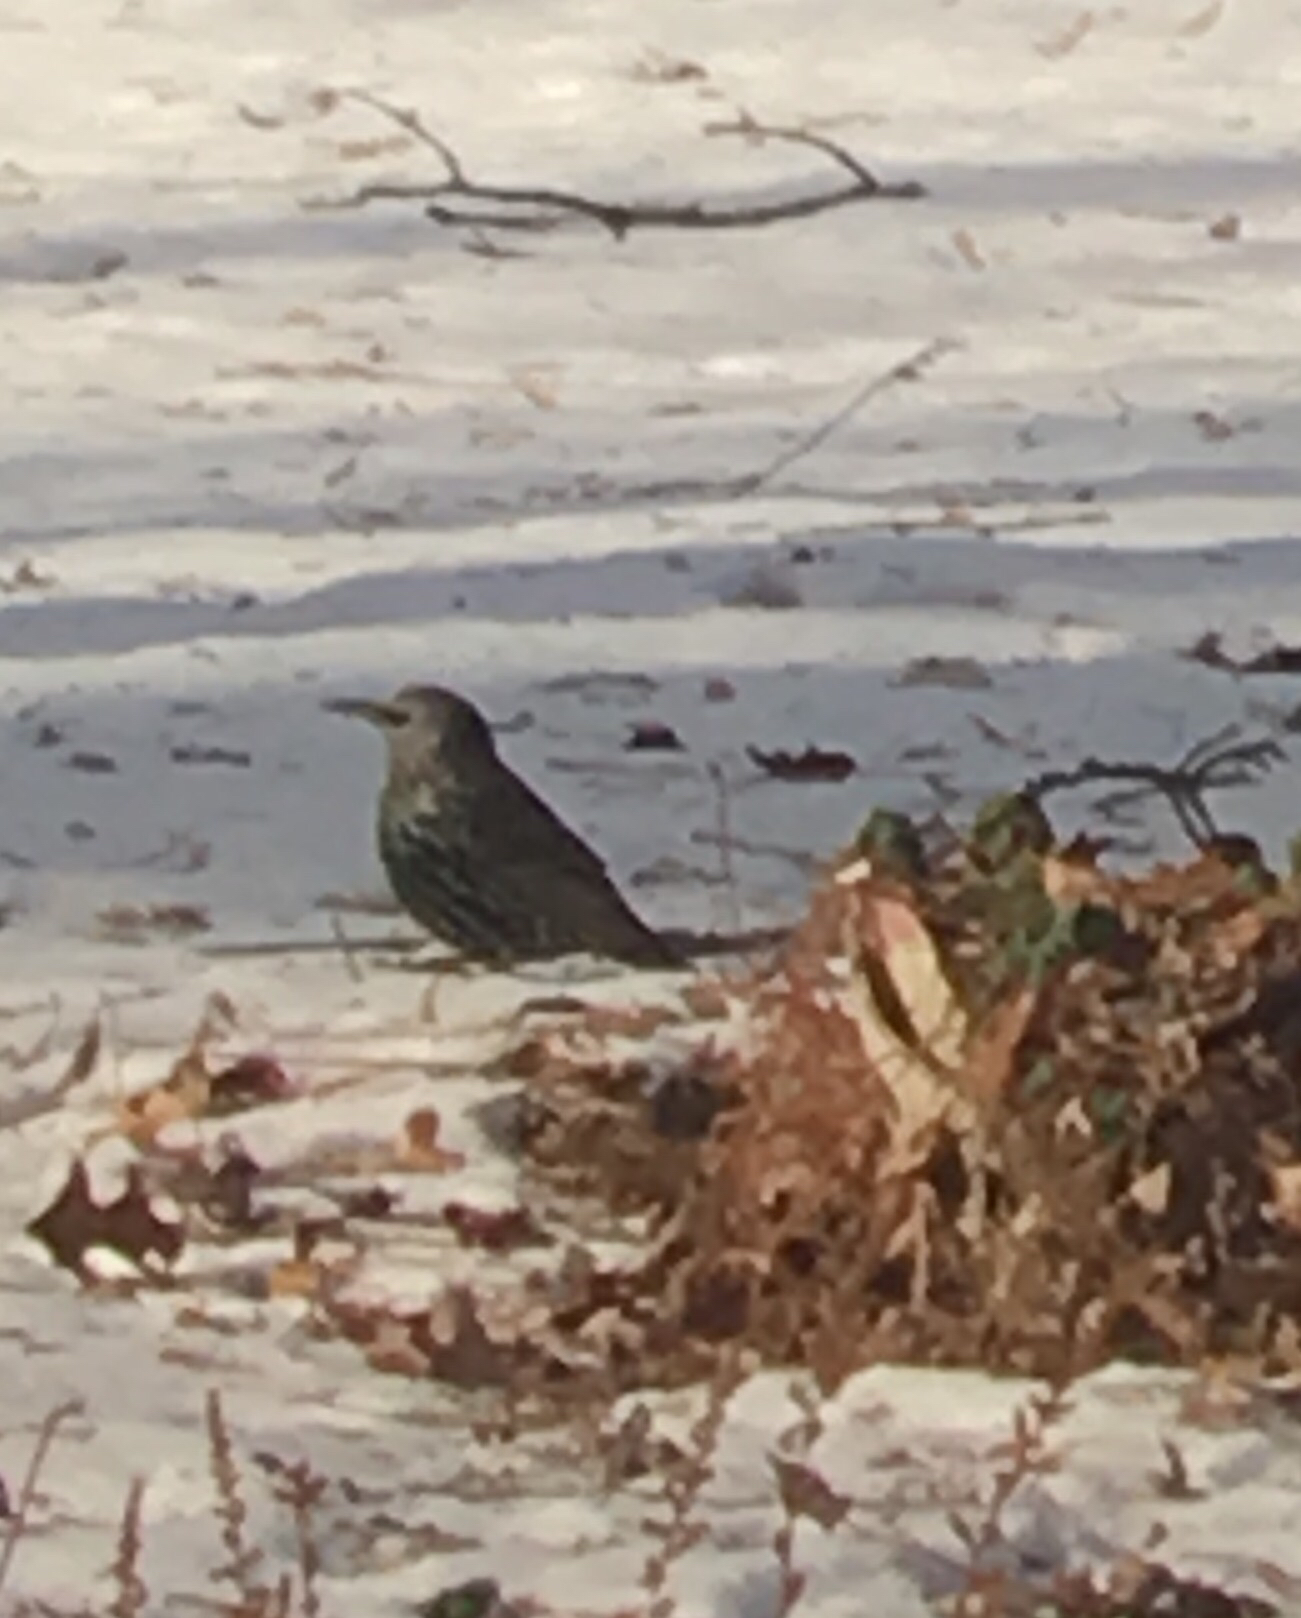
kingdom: Animalia
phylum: Chordata
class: Aves
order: Passeriformes
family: Sturnidae
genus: Sturnus
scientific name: Sturnus vulgaris
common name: Common starling
